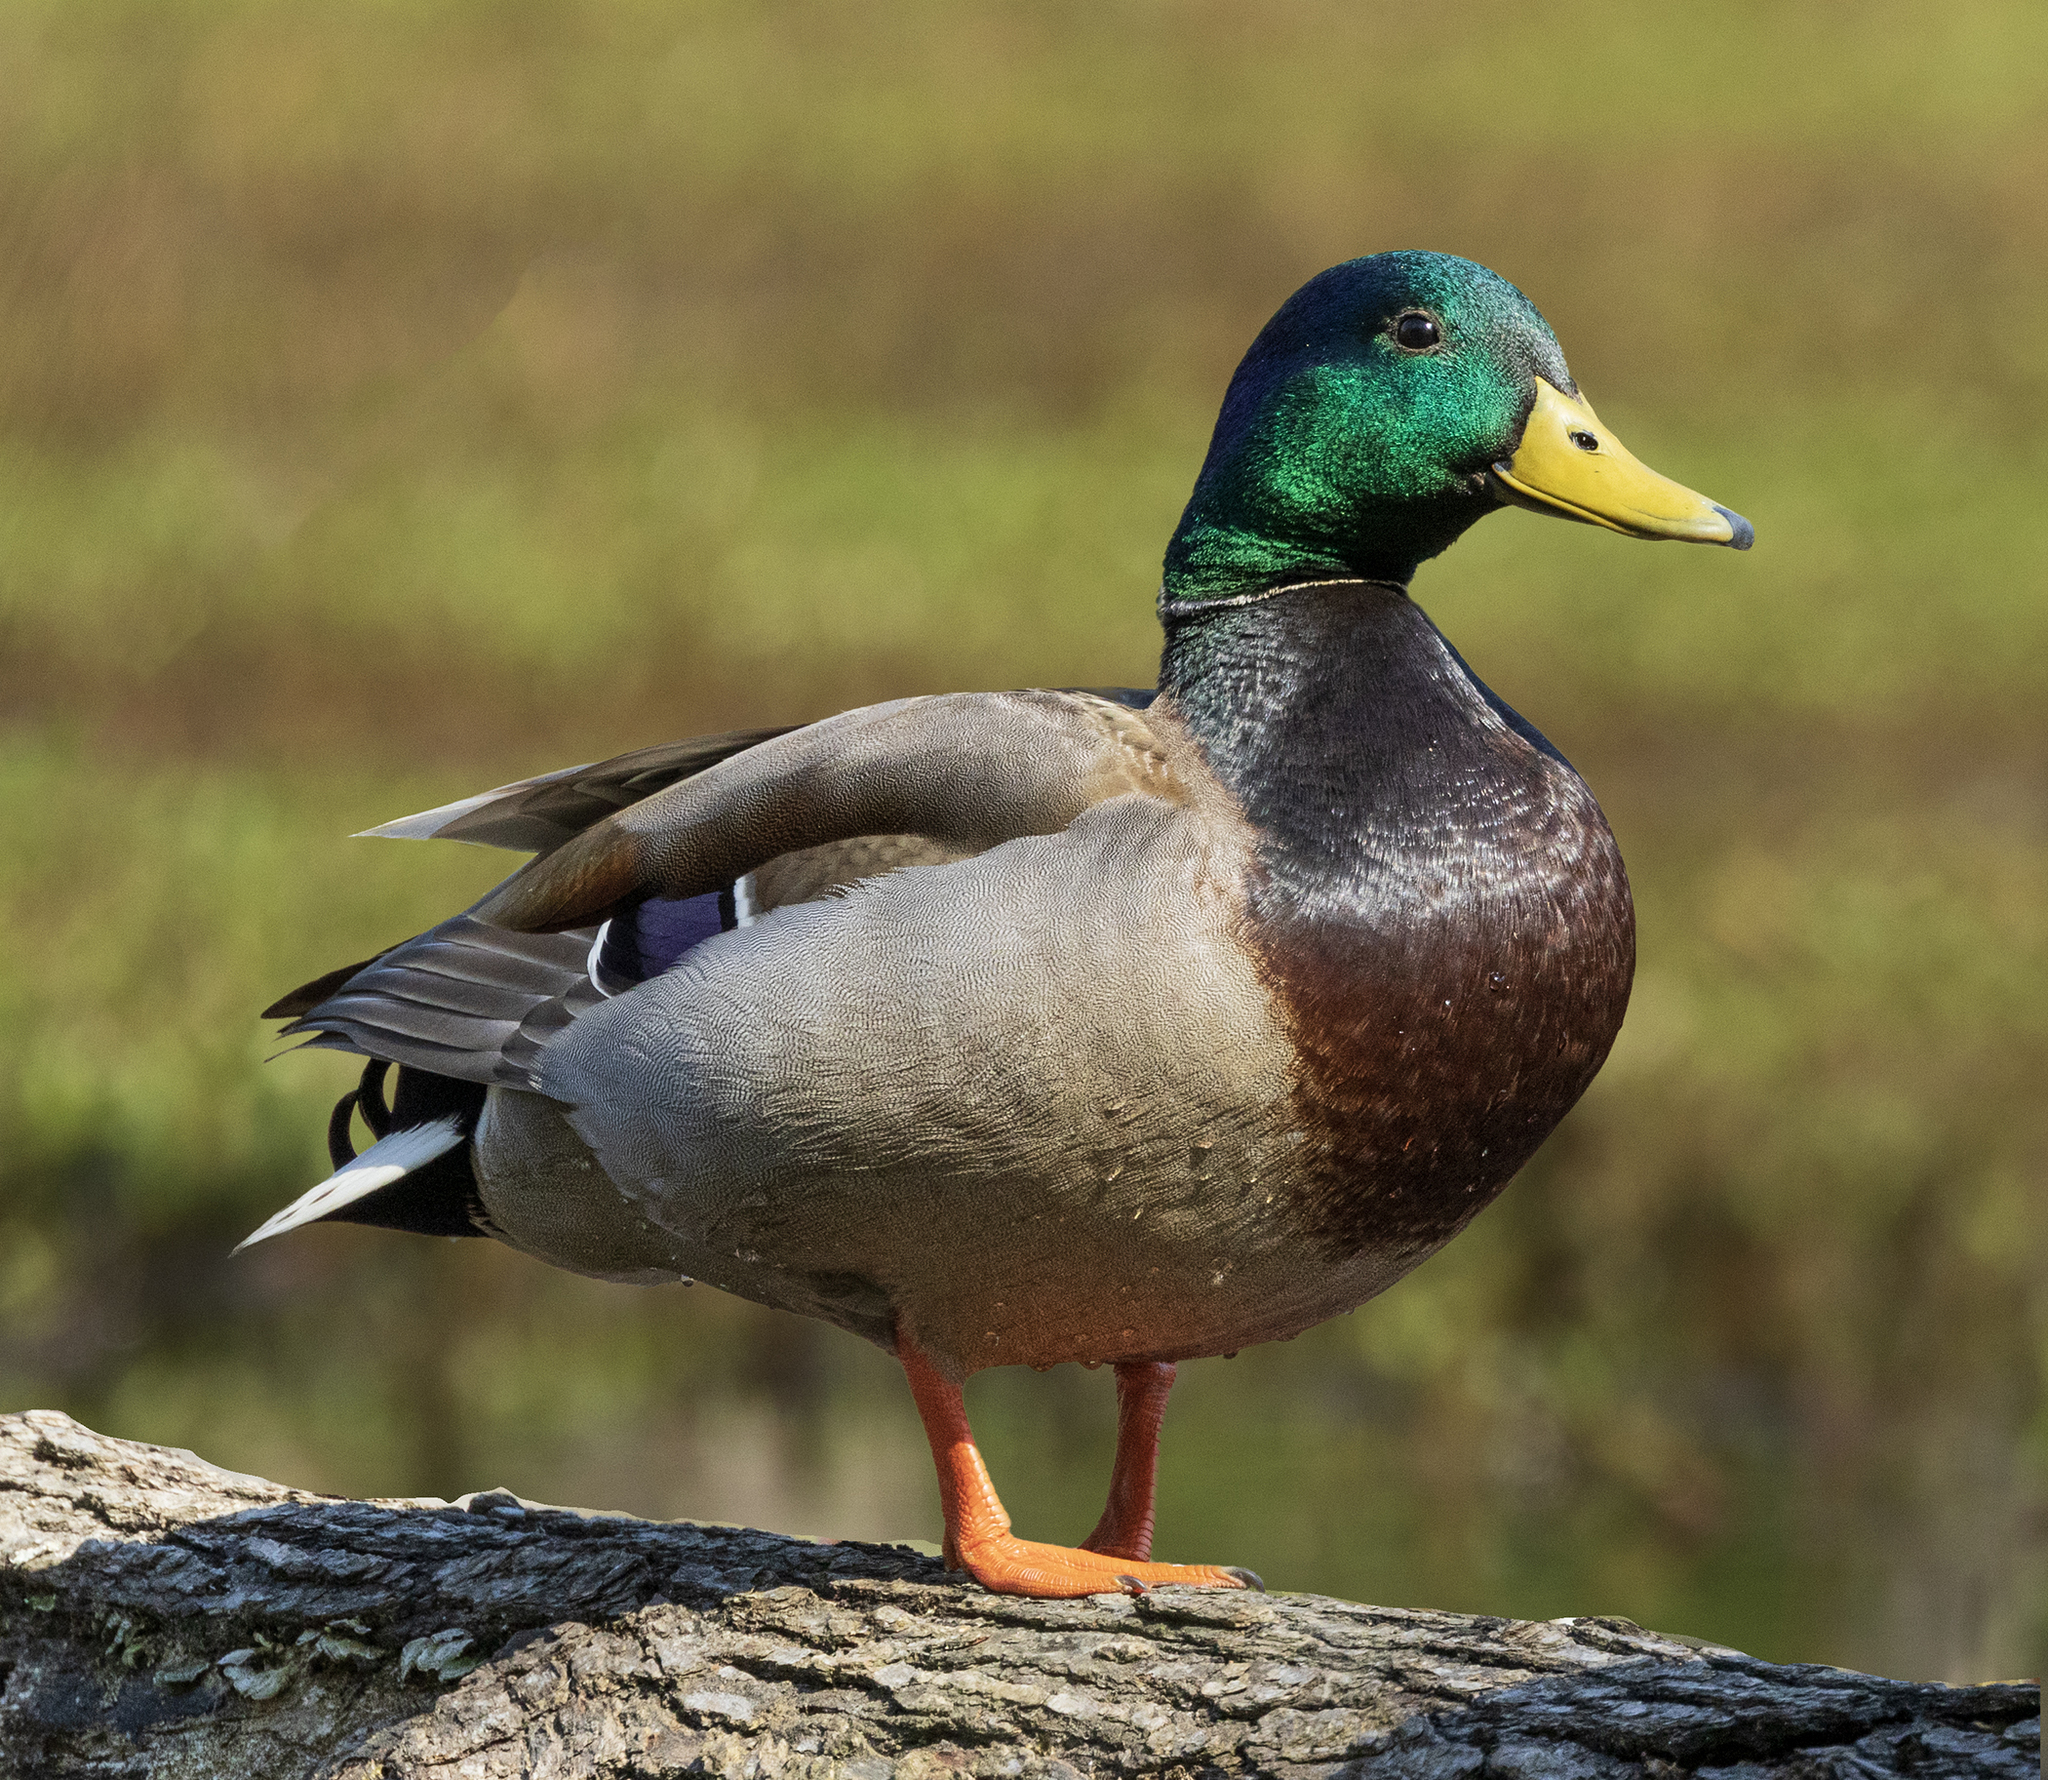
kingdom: Animalia
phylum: Chordata
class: Aves
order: Anseriformes
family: Anatidae
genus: Anas
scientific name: Anas platyrhynchos
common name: Mallard
